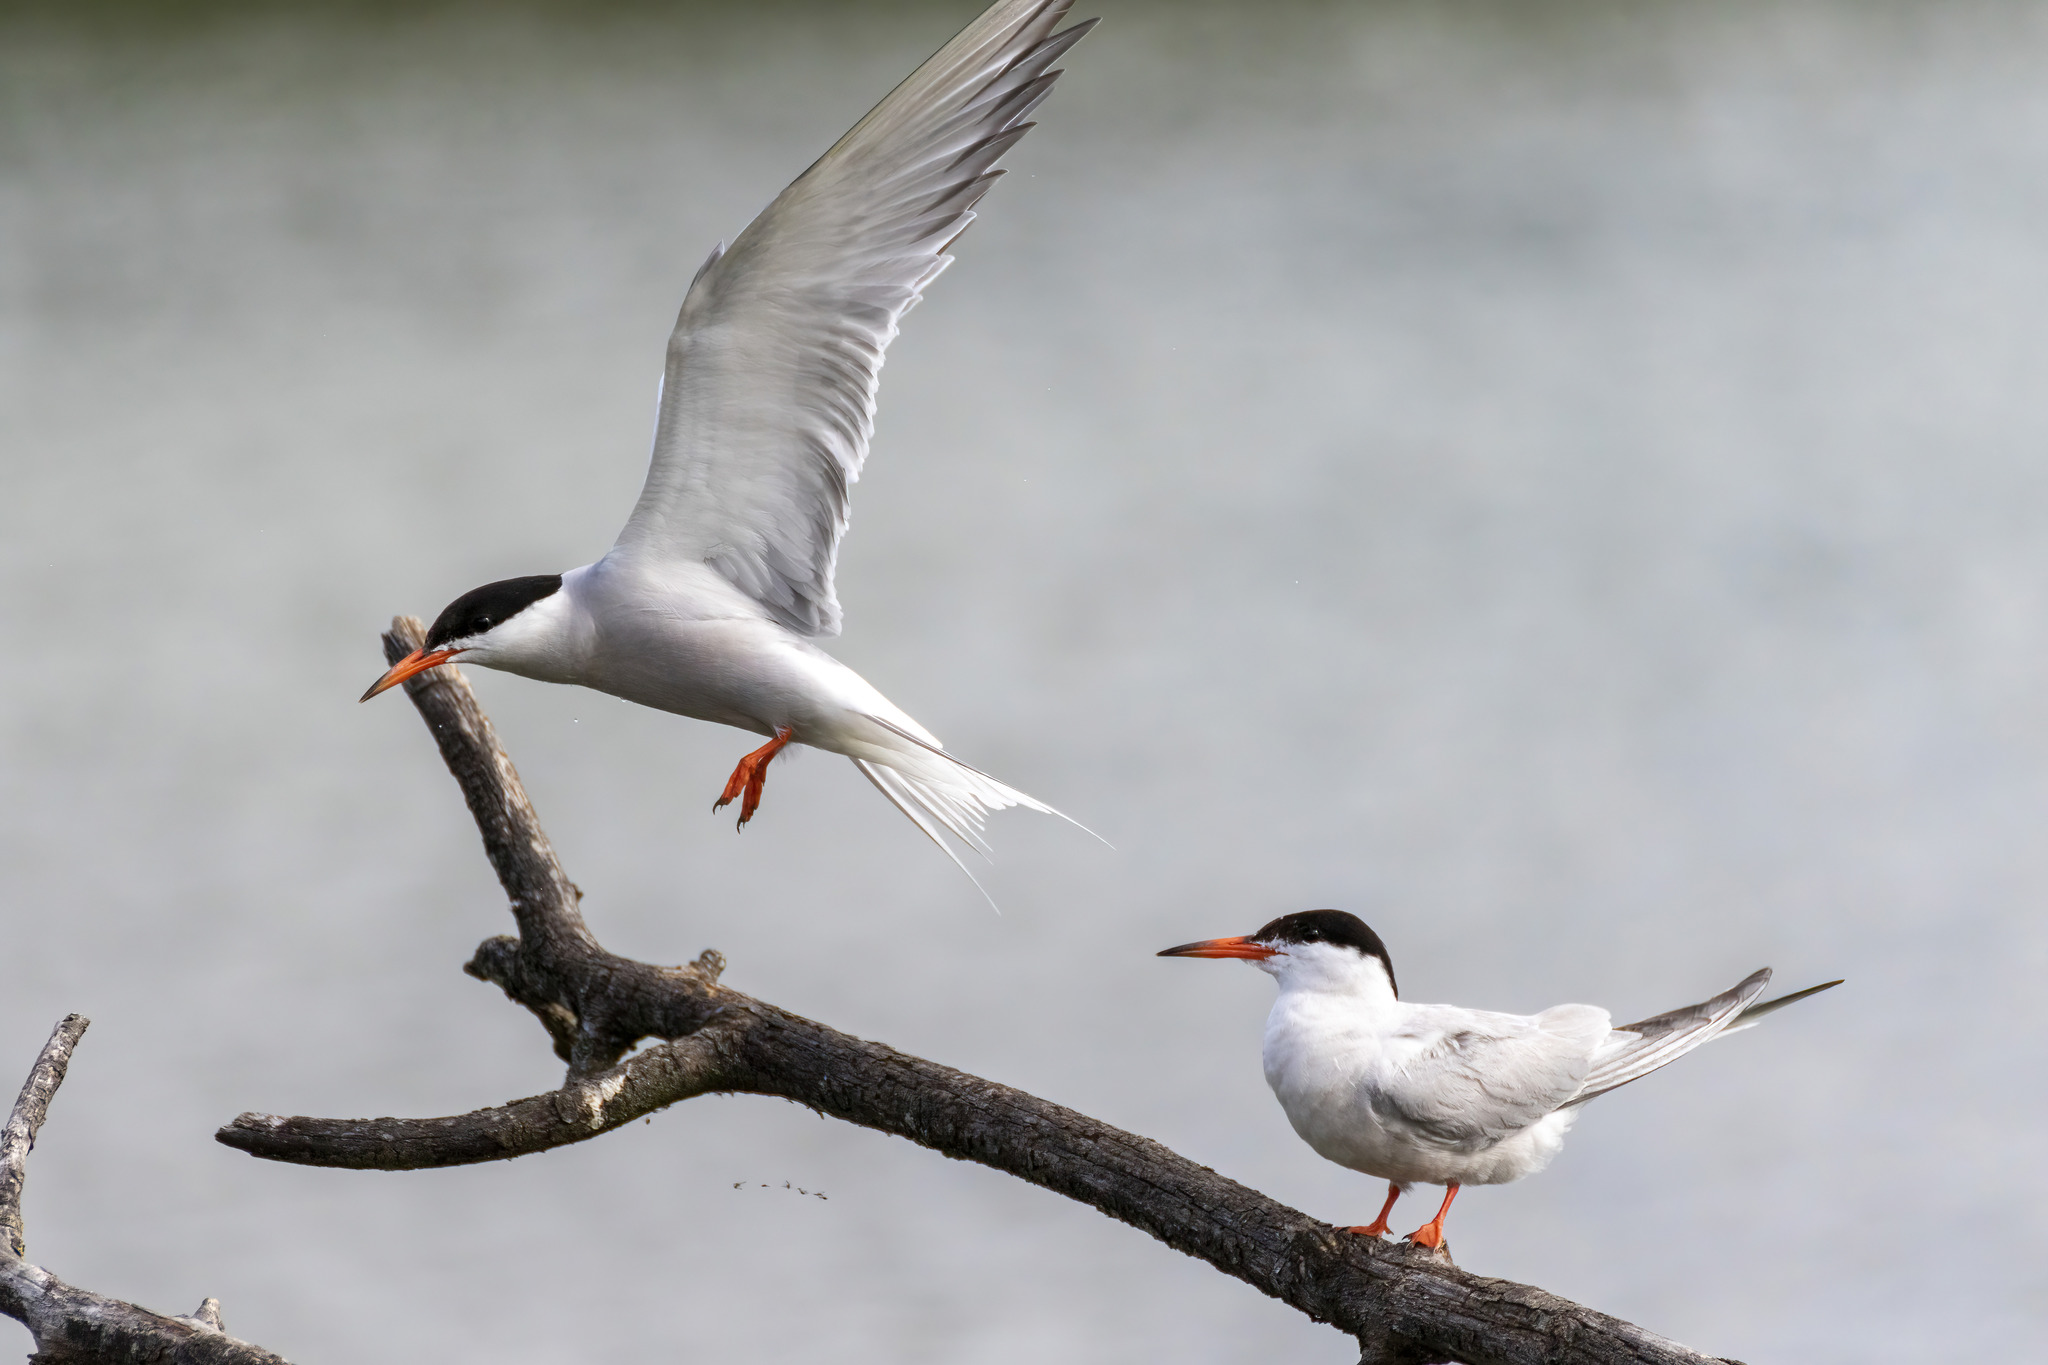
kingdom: Animalia
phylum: Chordata
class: Aves
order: Charadriiformes
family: Laridae
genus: Sterna
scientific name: Sterna hirundo
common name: Common tern
